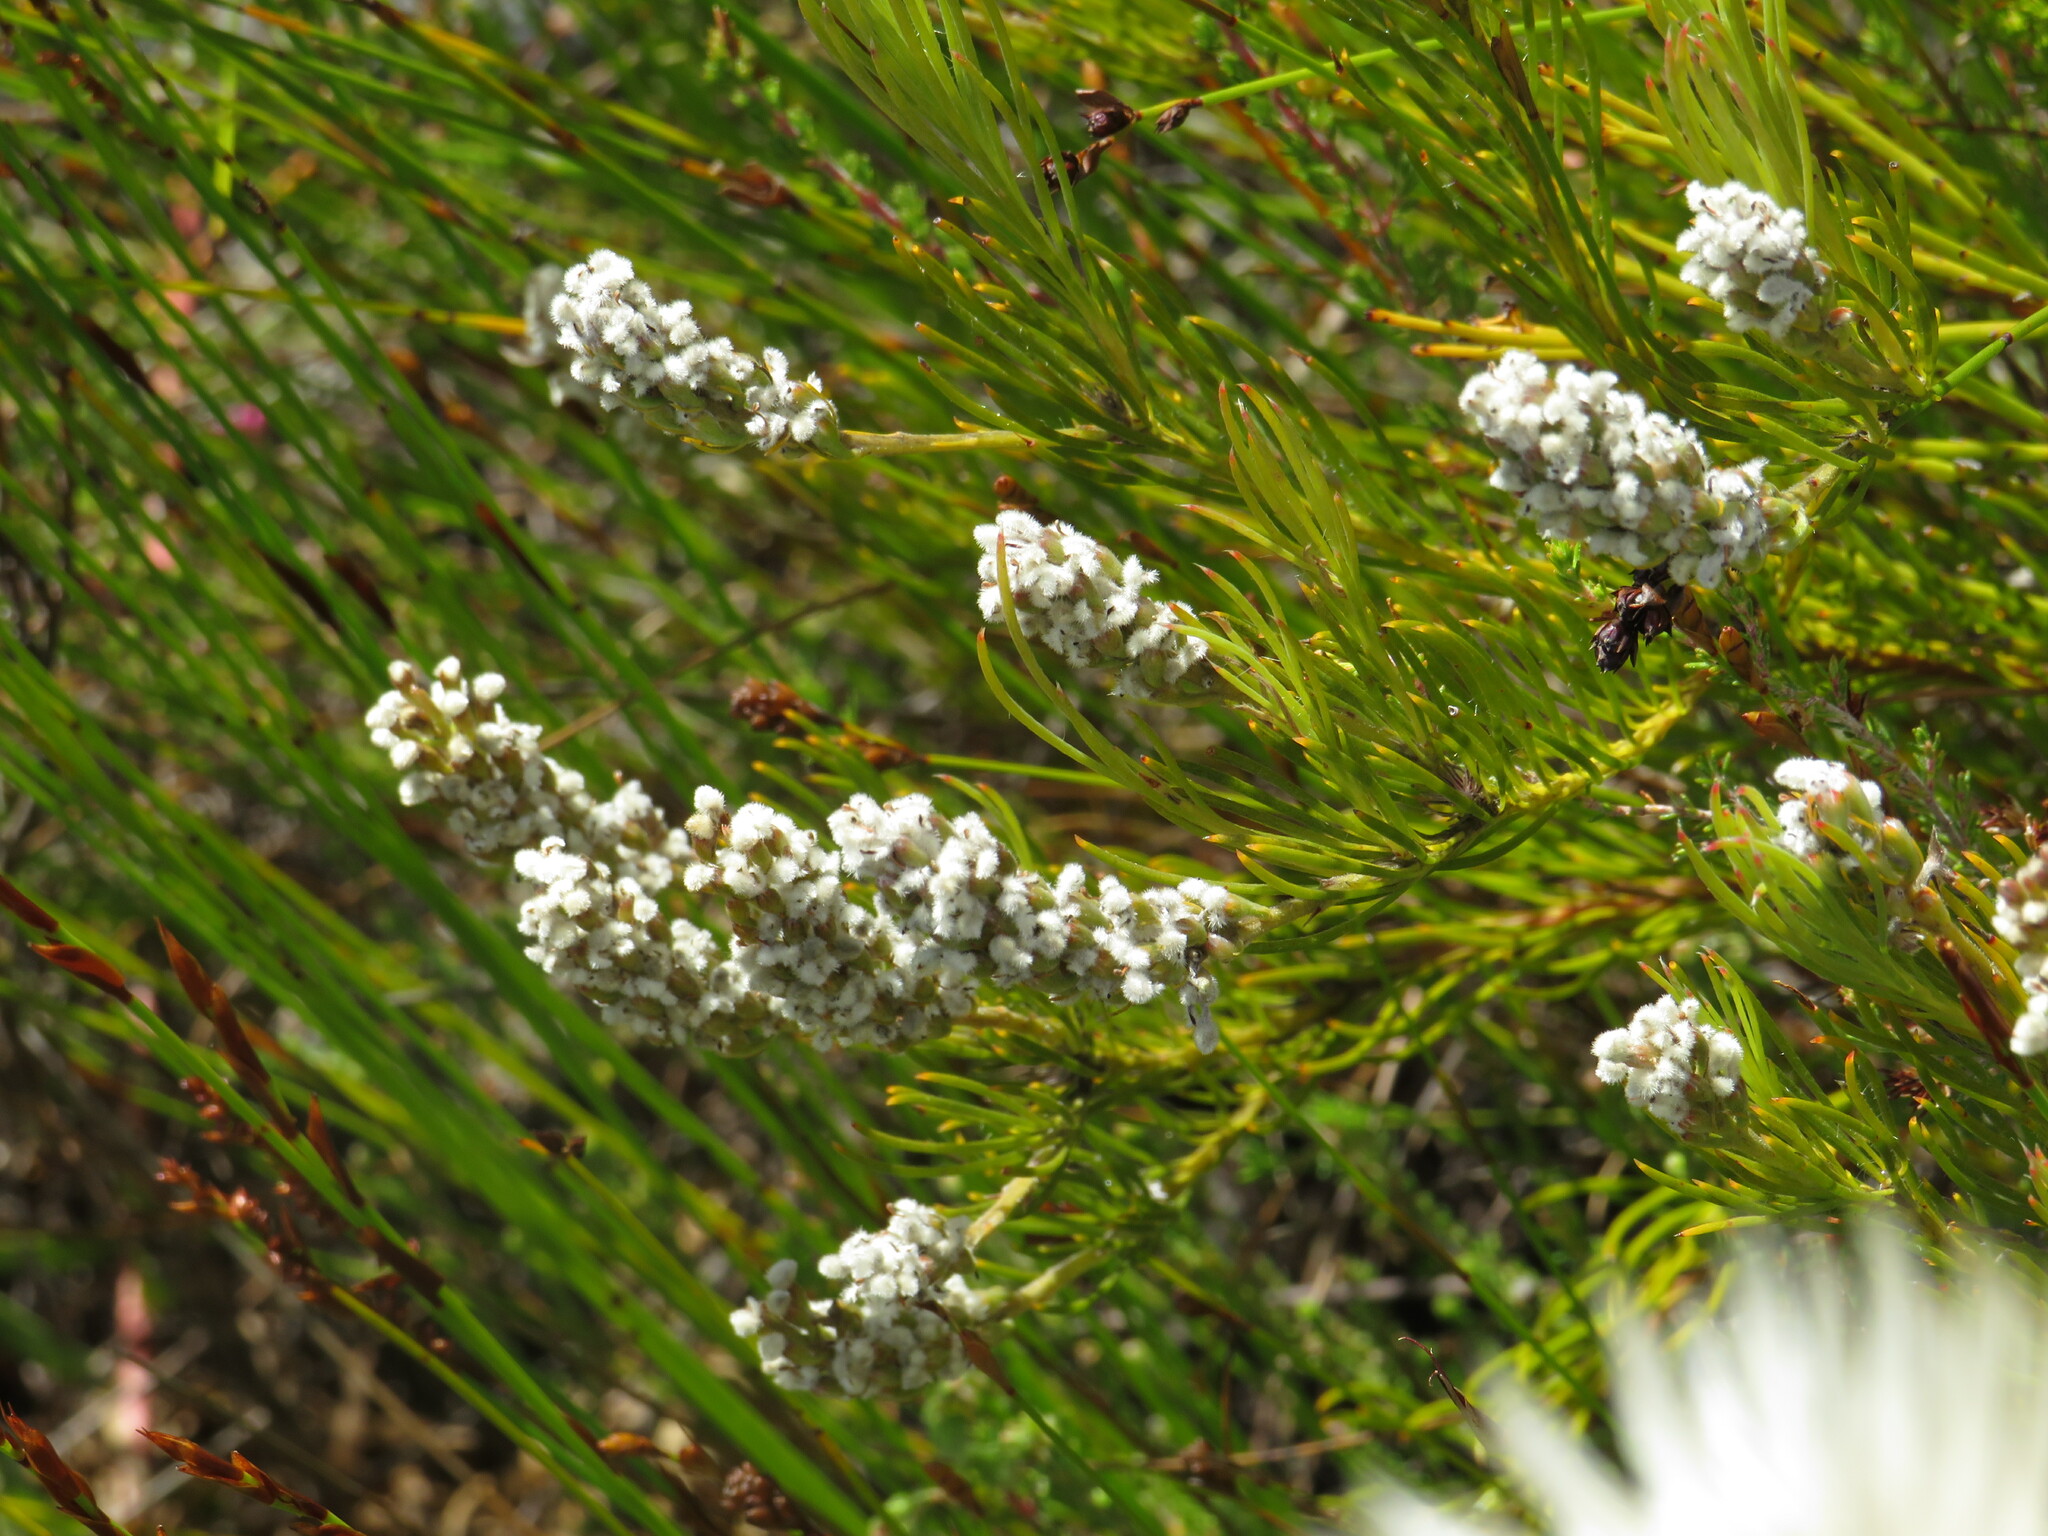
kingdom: Plantae
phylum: Tracheophyta
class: Magnoliopsida
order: Proteales
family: Proteaceae
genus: Spatalla
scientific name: Spatalla curvifolia
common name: White-stalked spoon
